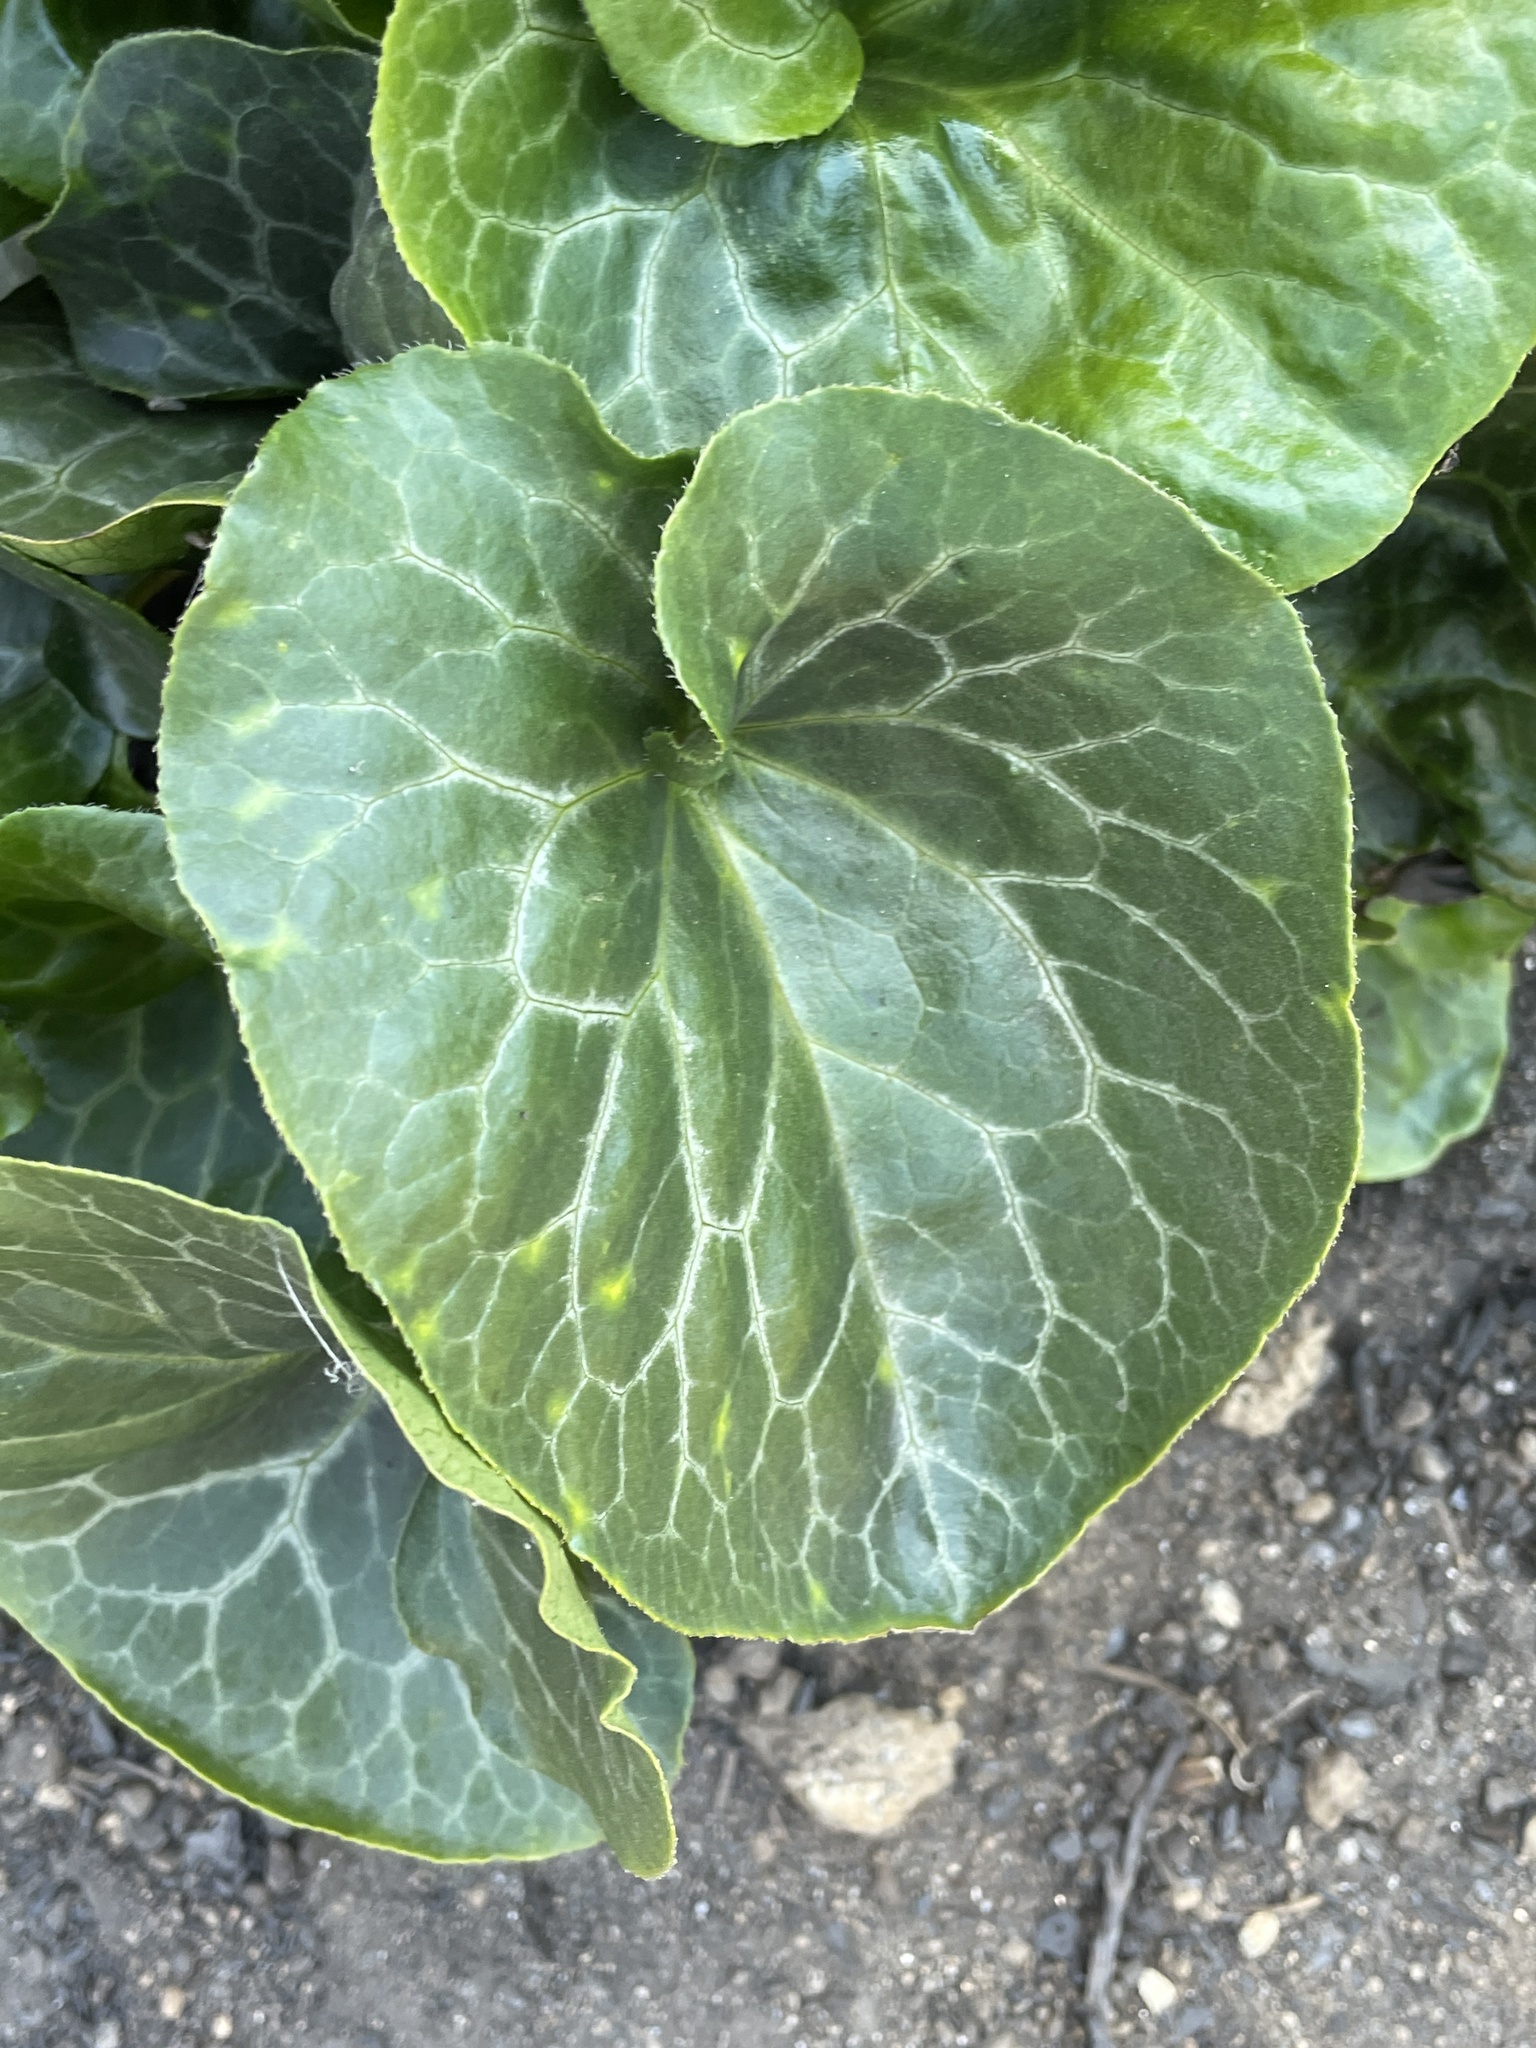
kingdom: Plantae
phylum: Tracheophyta
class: Magnoliopsida
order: Piperales
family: Aristolochiaceae
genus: Asarum
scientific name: Asarum hartwegii
